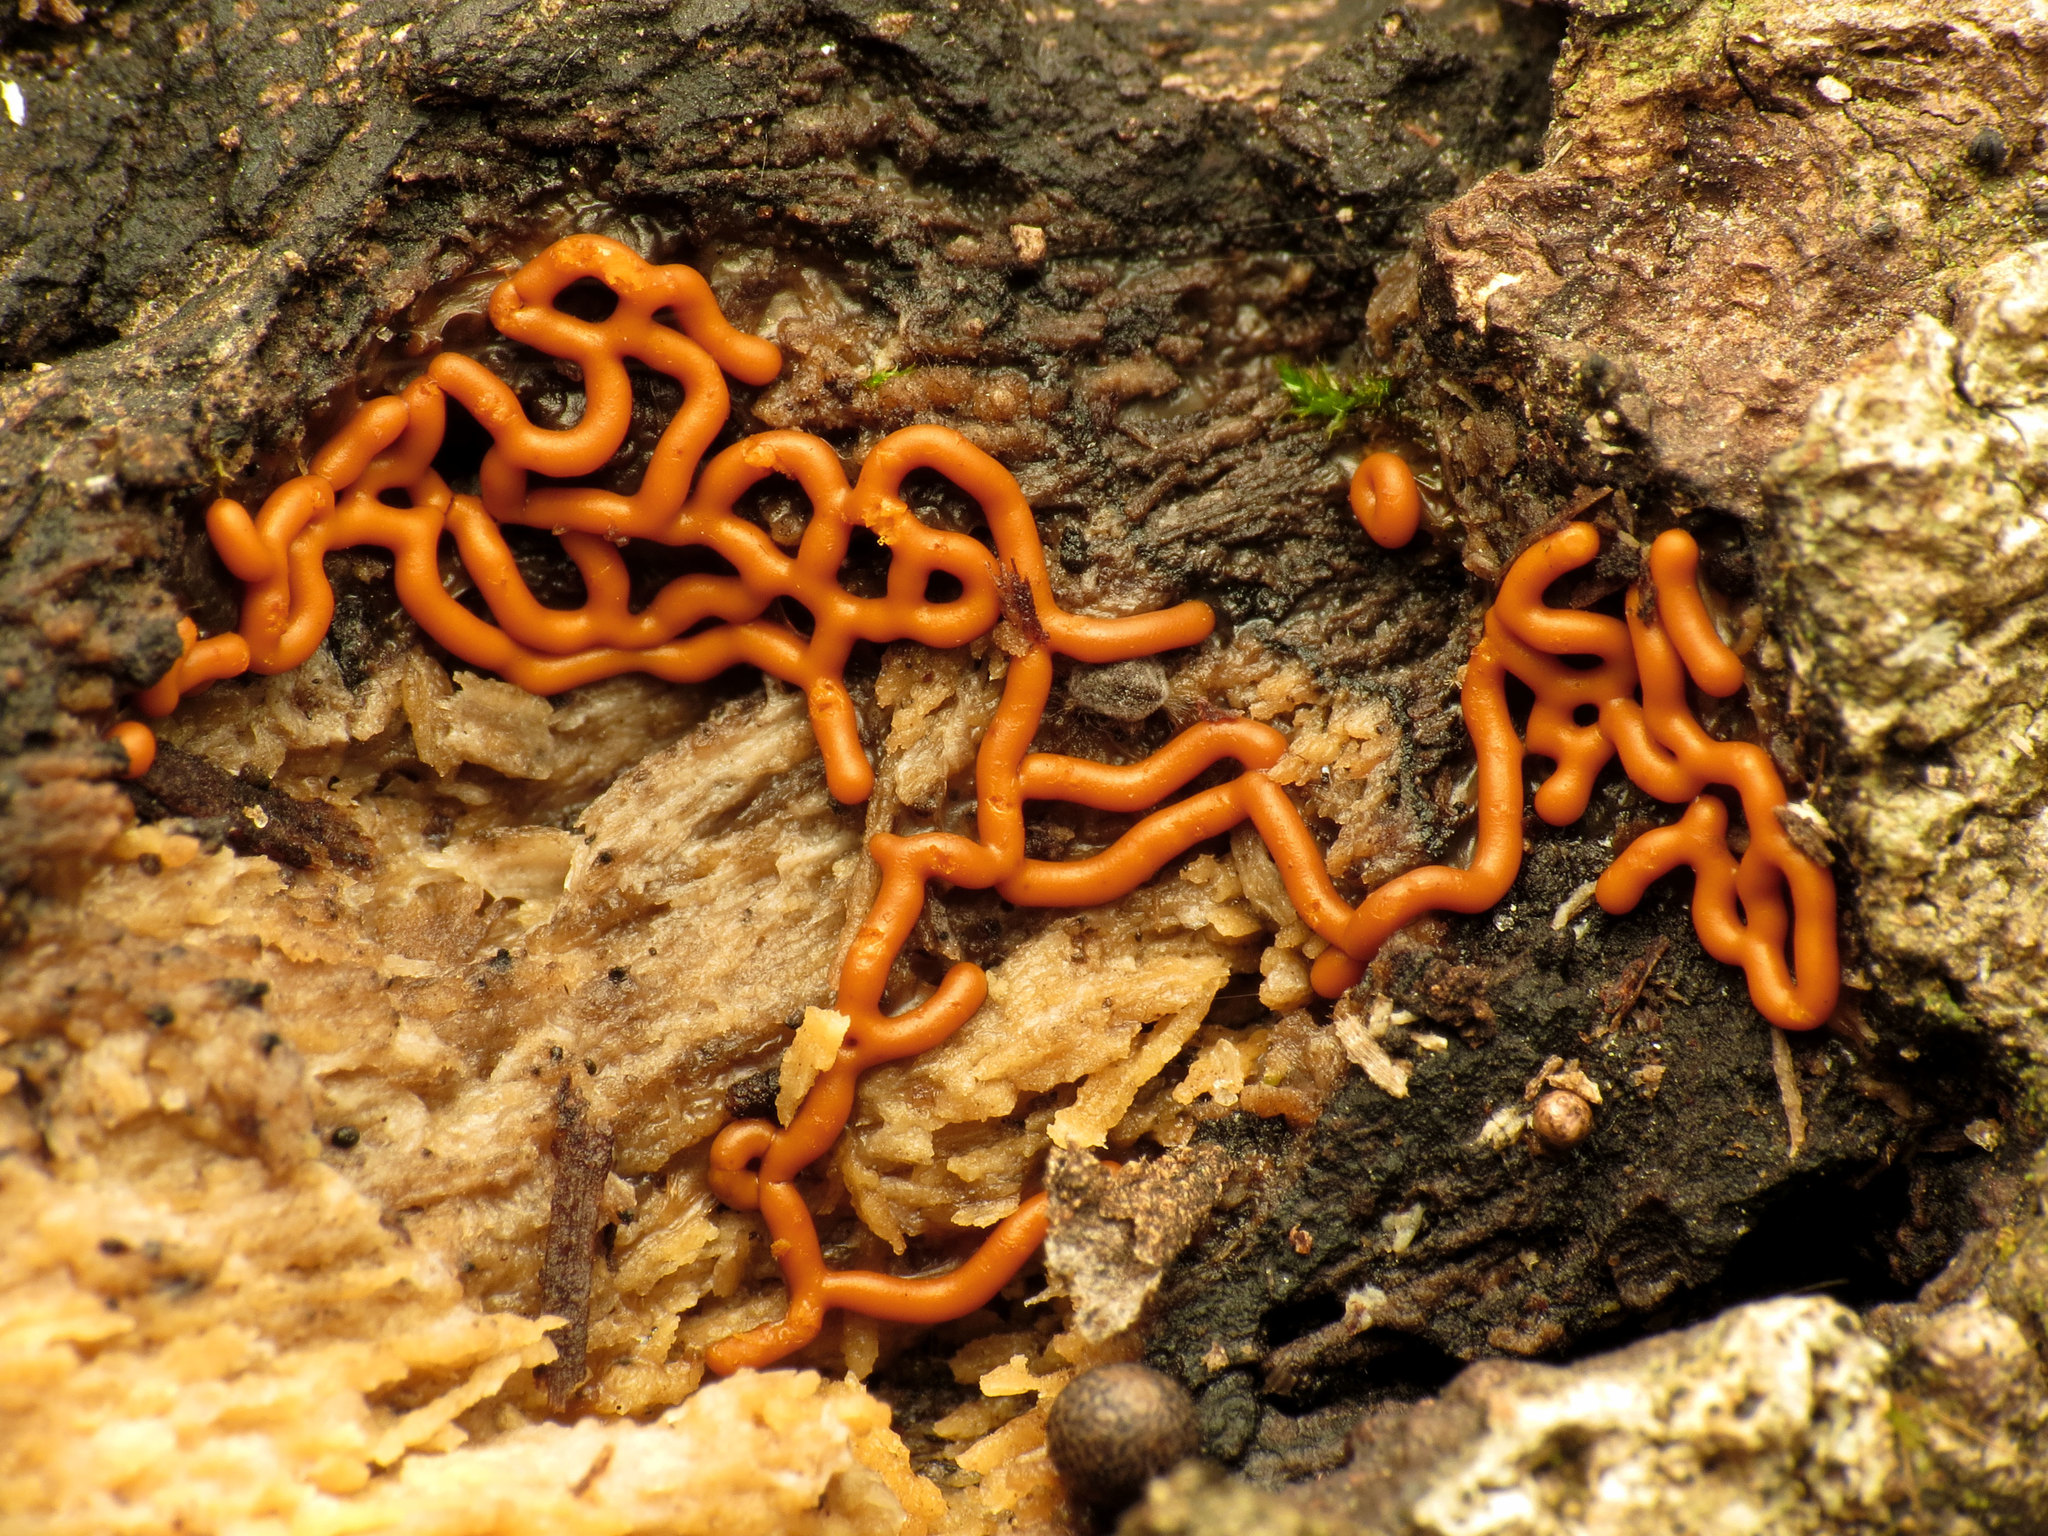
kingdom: Protozoa
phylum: Mycetozoa
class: Myxomycetes
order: Trichiales
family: Arcyriaceae
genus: Hemitrichia
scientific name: Hemitrichia serpula
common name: Pretzel slime mold
